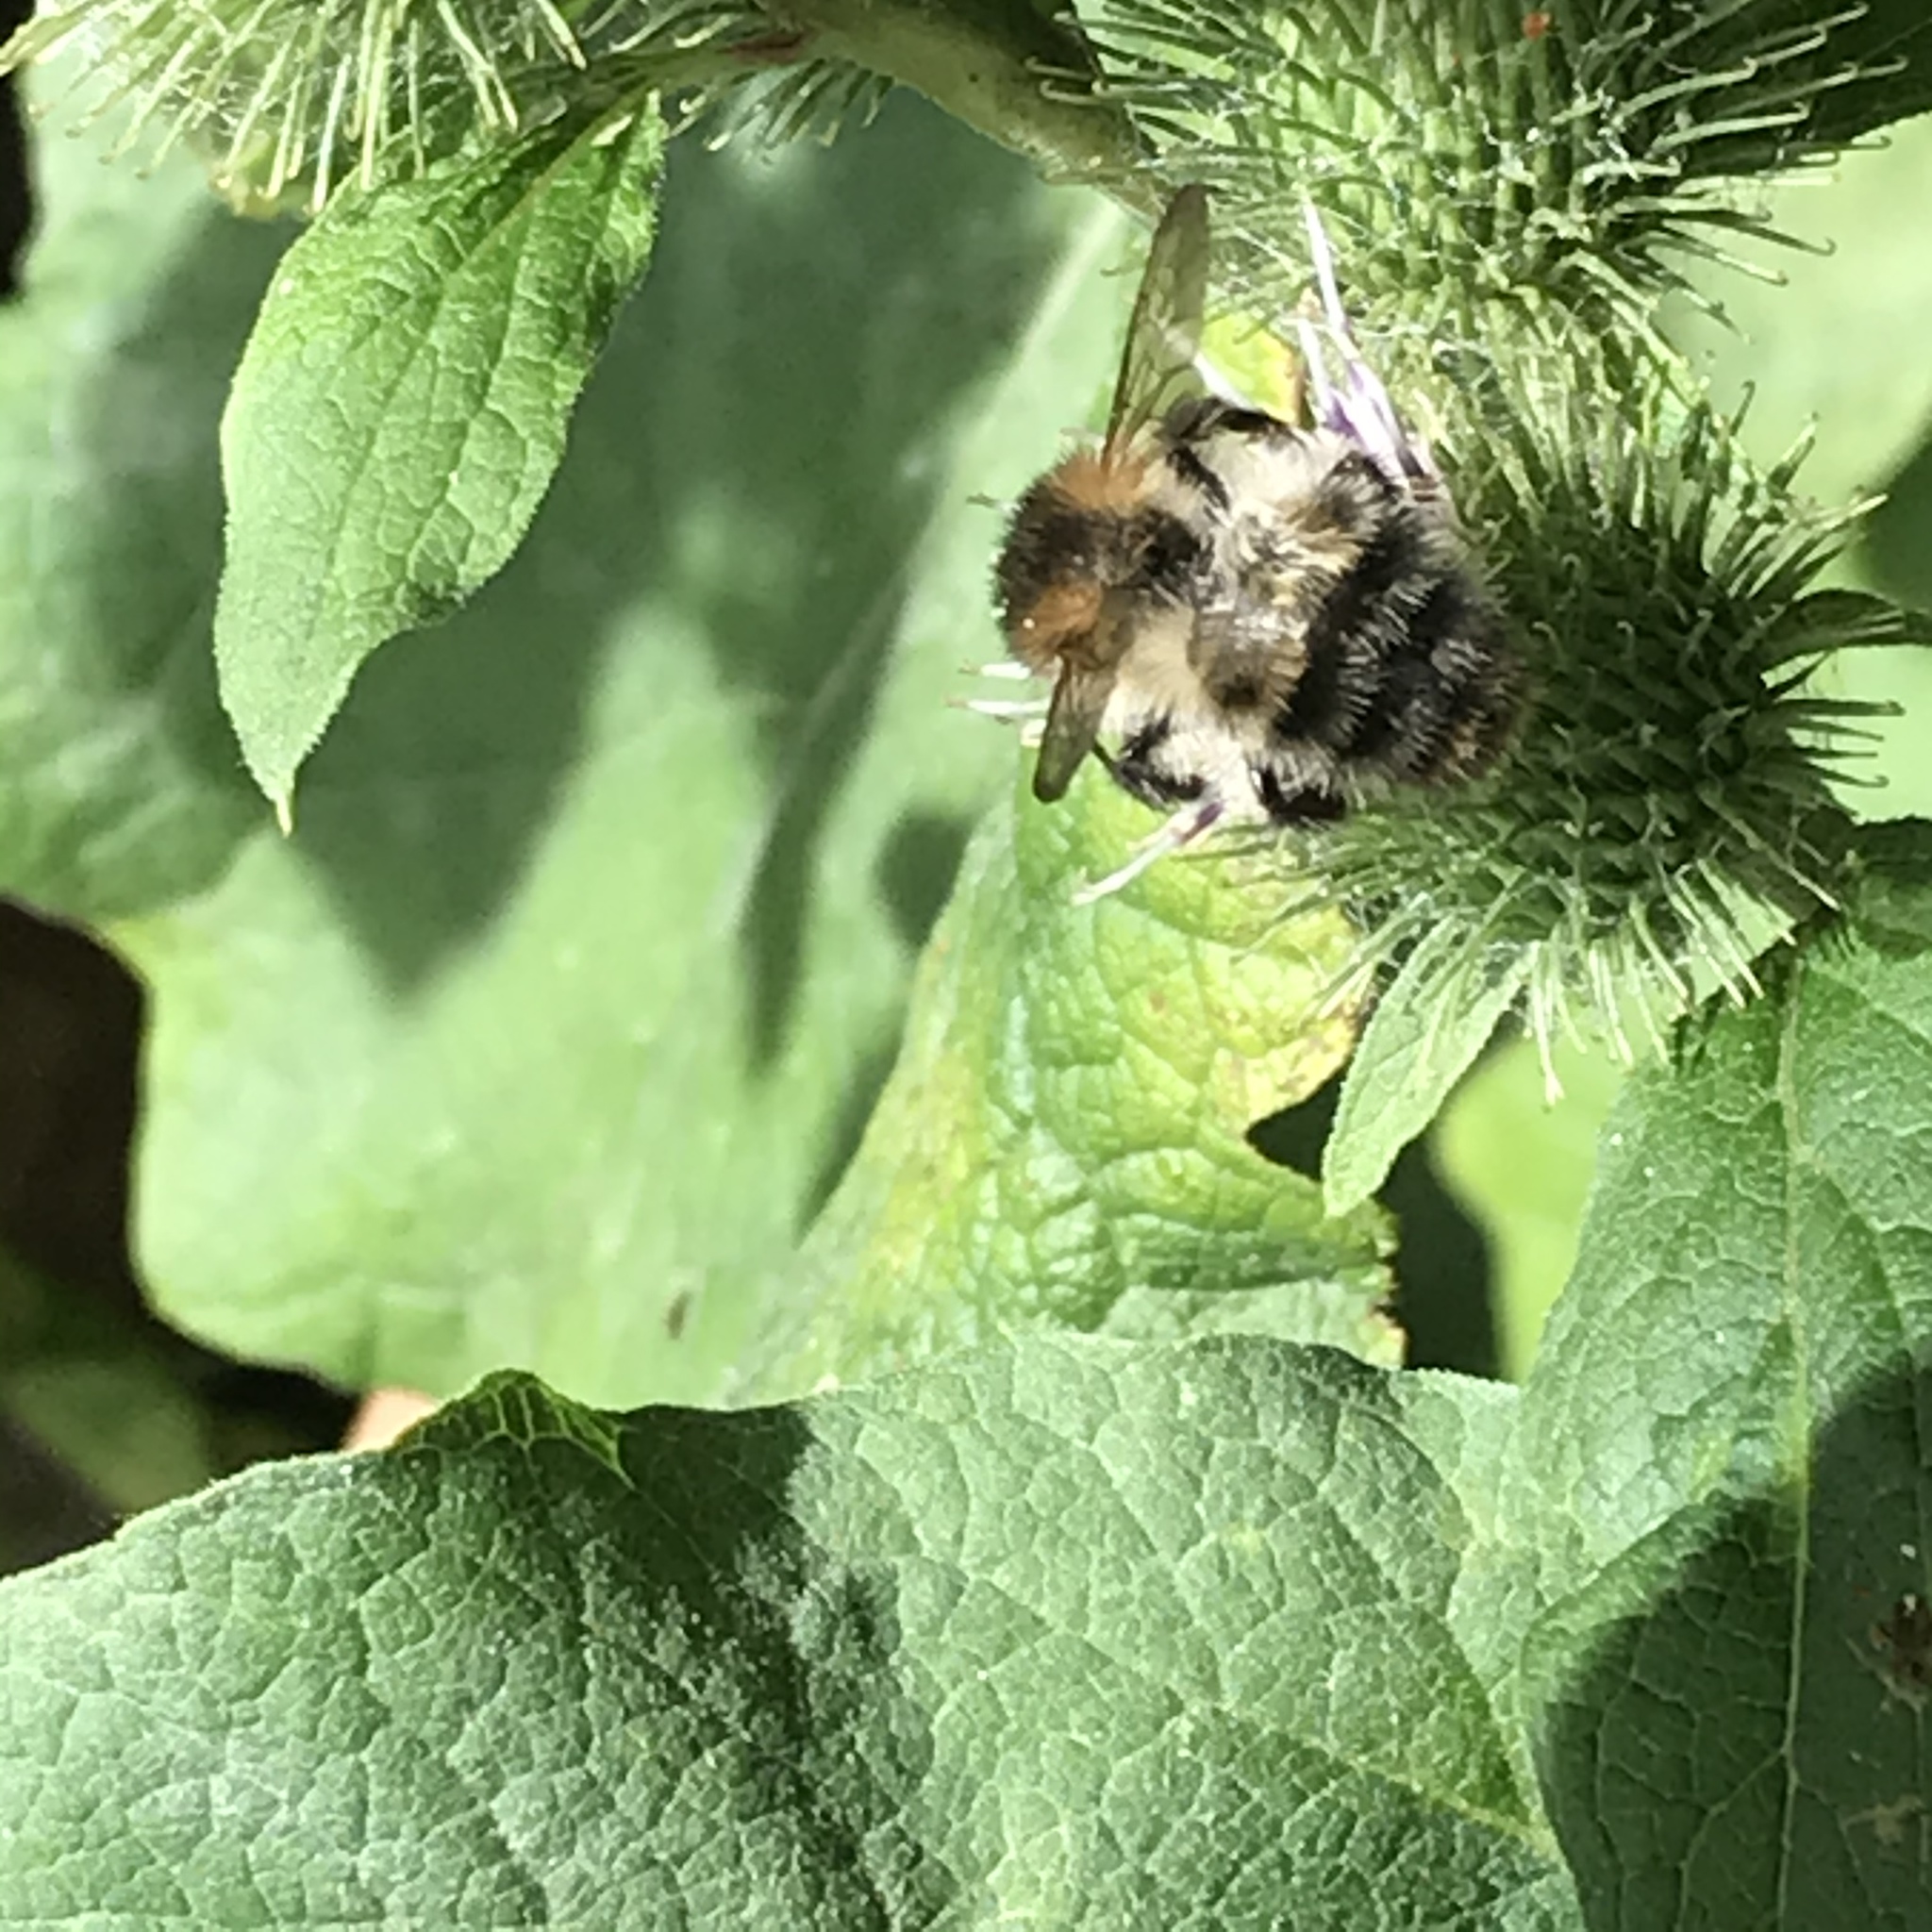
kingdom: Animalia
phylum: Arthropoda
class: Insecta
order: Hymenoptera
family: Apidae
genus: Bombus
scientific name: Bombus pascuorum
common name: Common carder bee
